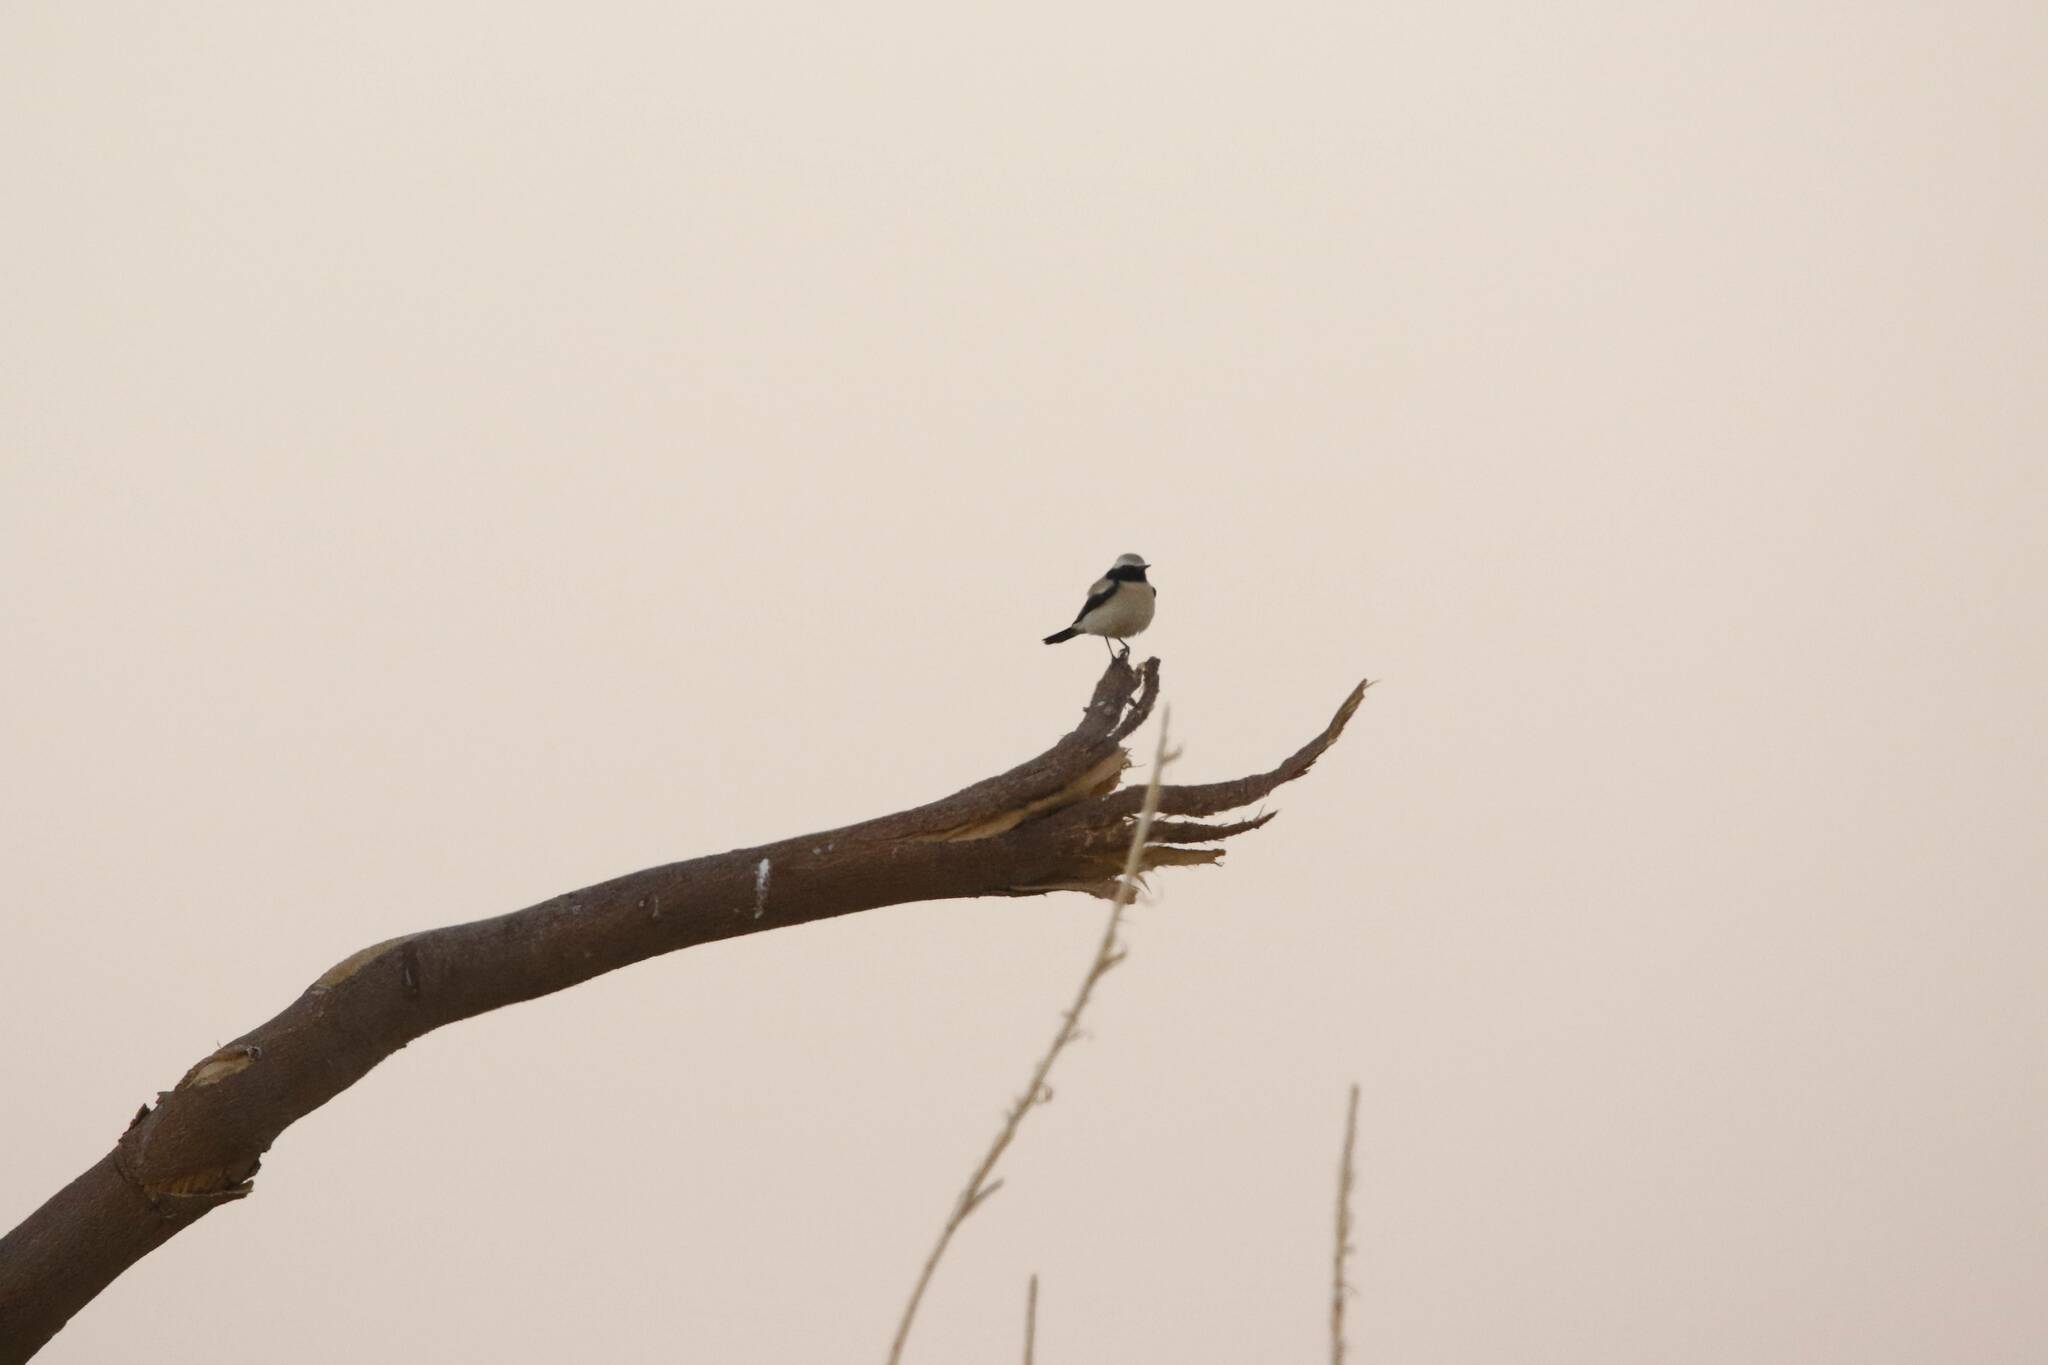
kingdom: Animalia
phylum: Chordata
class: Aves
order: Passeriformes
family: Muscicapidae
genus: Oenanthe
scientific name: Oenanthe deserti
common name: Desert wheatear
